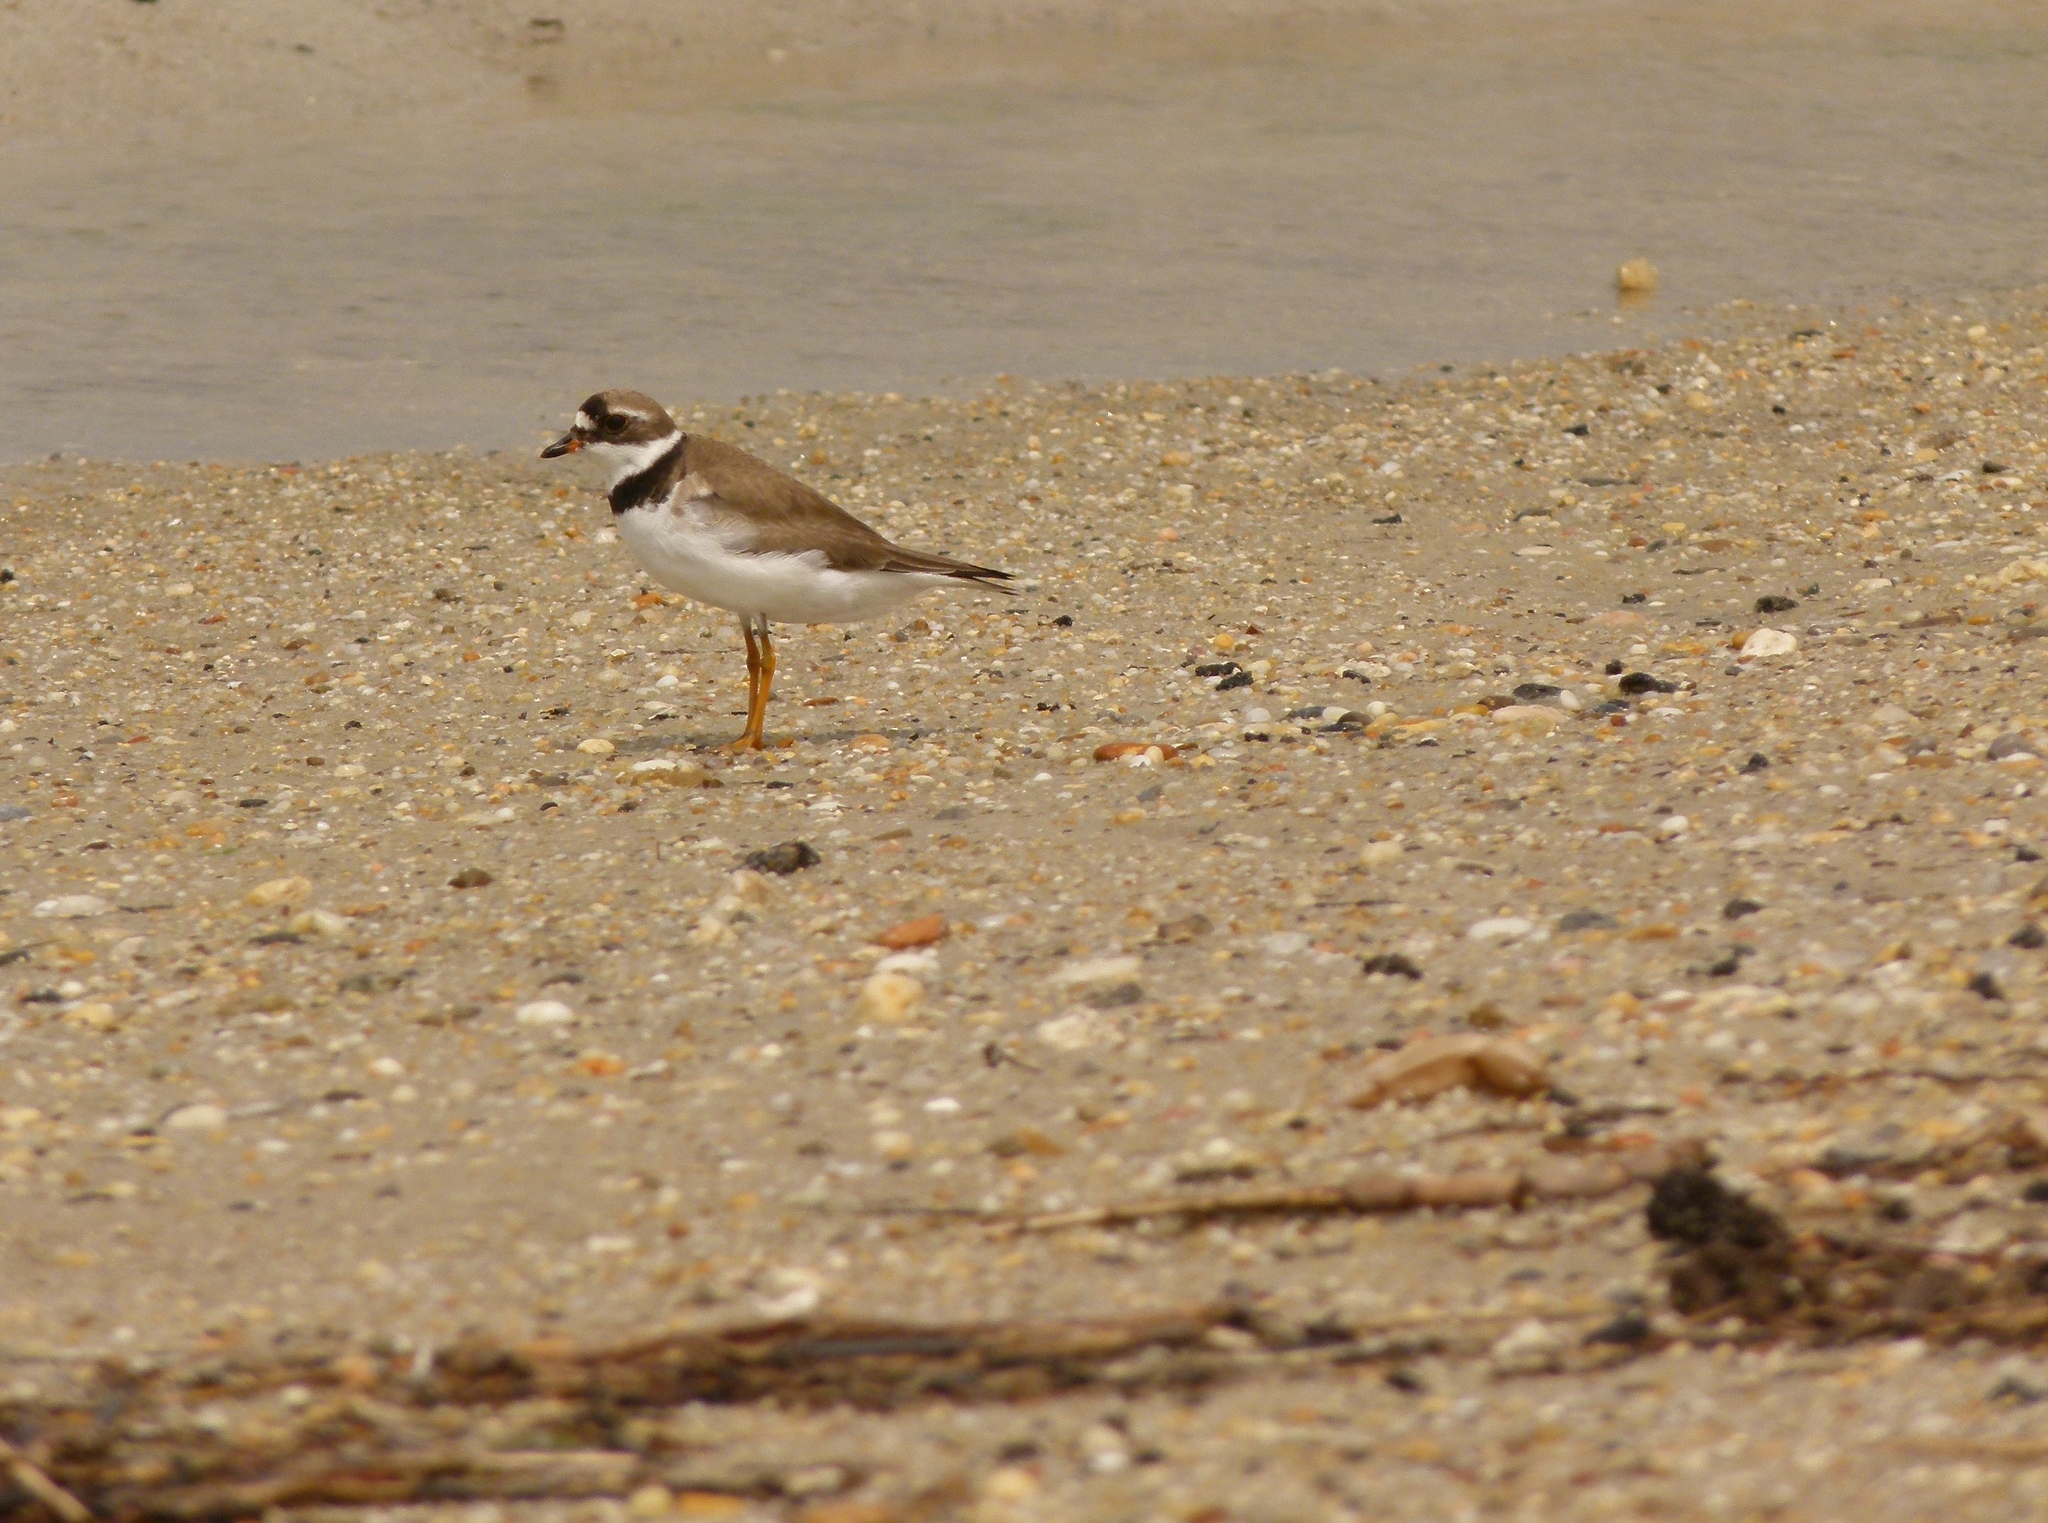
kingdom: Animalia
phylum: Chordata
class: Aves
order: Charadriiformes
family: Charadriidae
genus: Charadrius
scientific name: Charadrius semipalmatus
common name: Semipalmated plover
